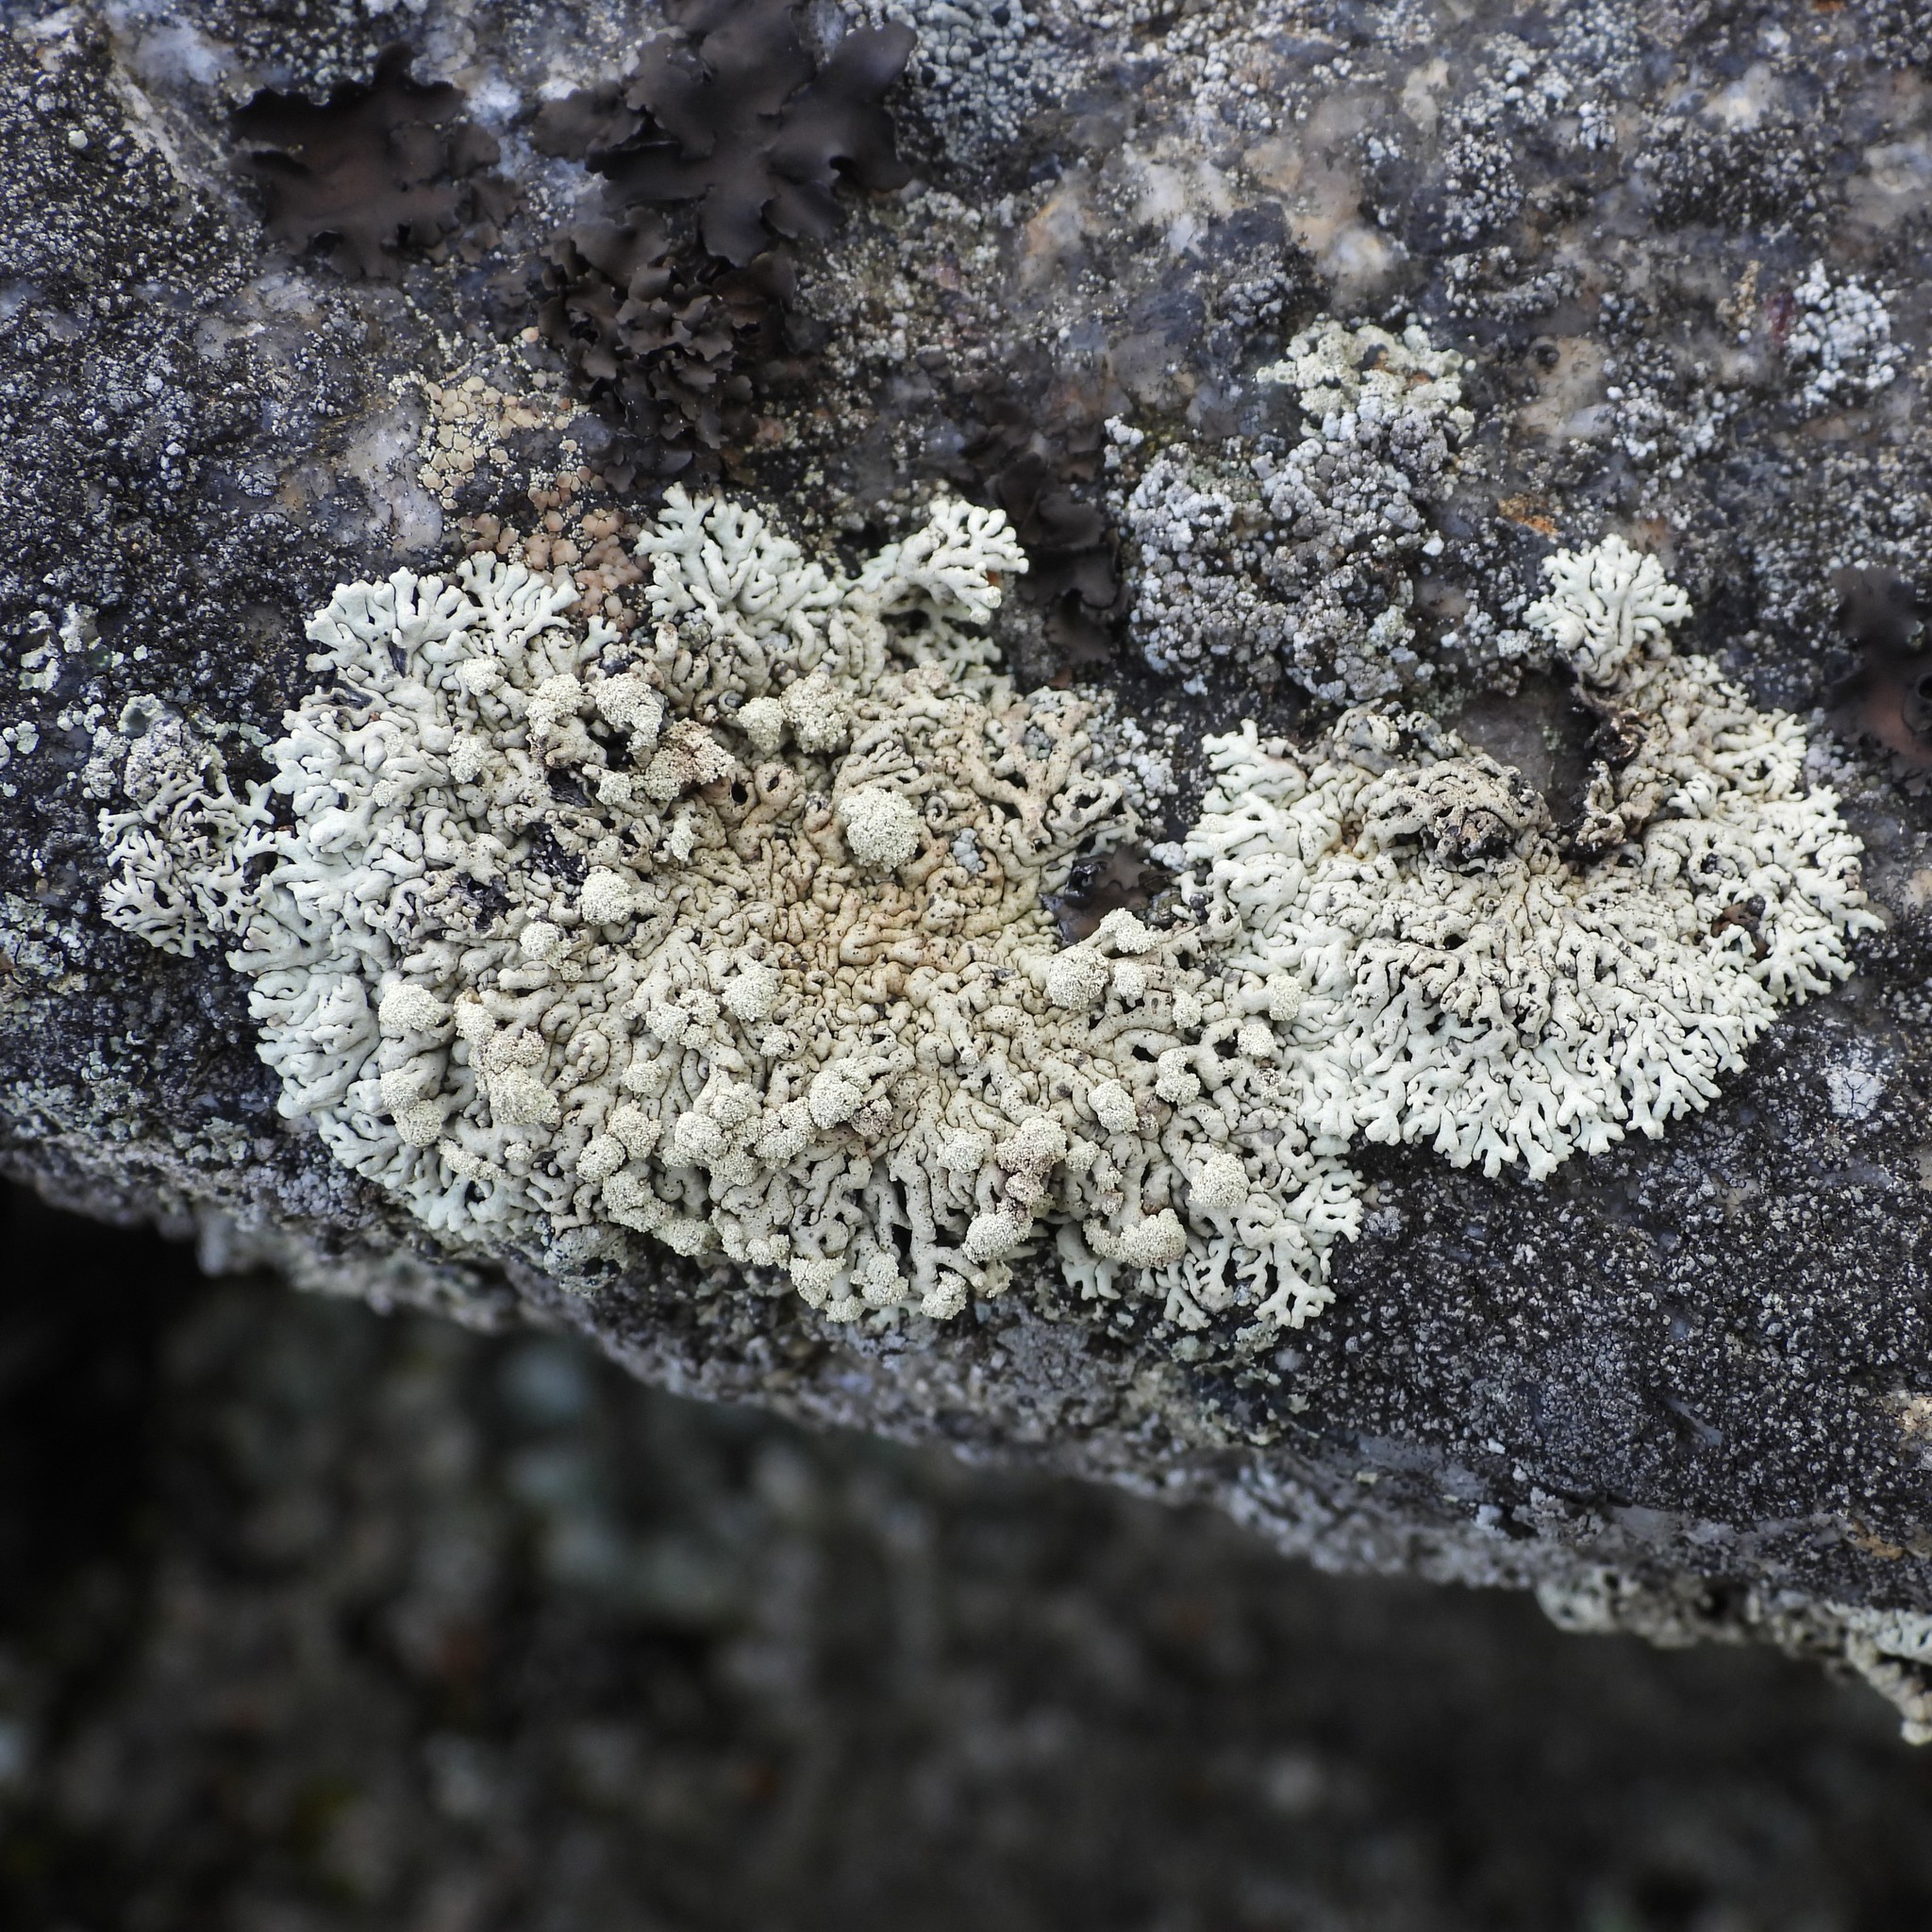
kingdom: Fungi
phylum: Ascomycota
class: Lecanoromycetes
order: Lecanorales
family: Parmeliaceae
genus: Arctoparmelia
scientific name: Arctoparmelia incurva
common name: Bent ring lichen
